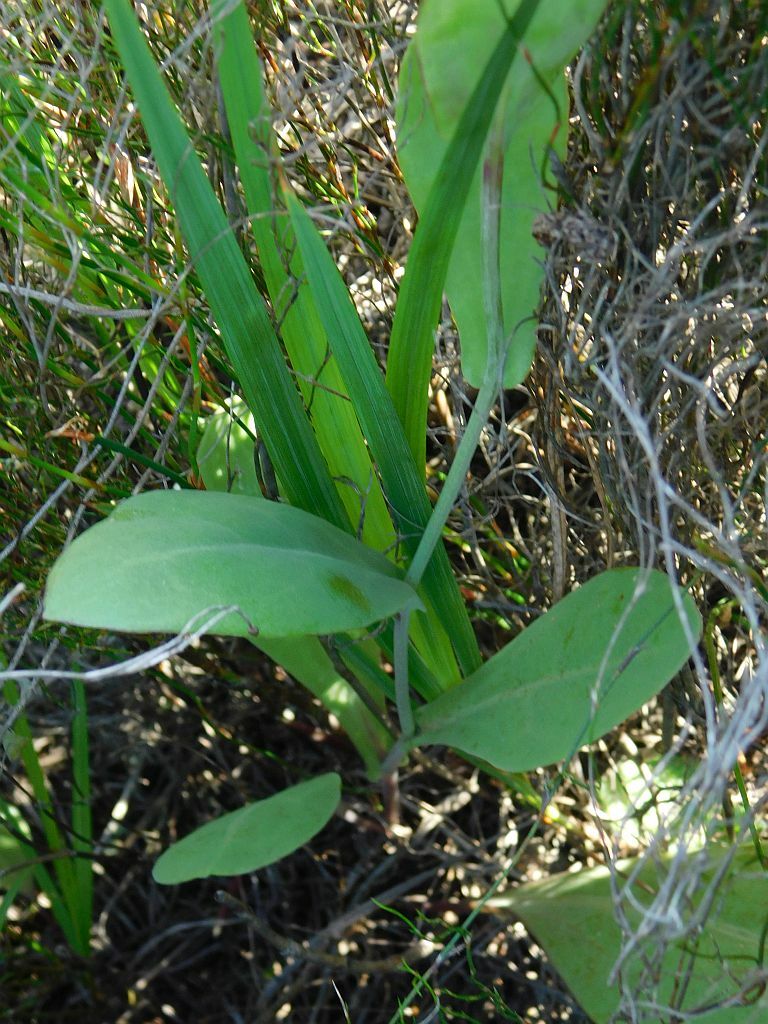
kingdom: Plantae
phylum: Tracheophyta
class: Magnoliopsida
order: Asterales
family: Asteraceae
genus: Othonna
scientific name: Othonna gymnodiscus
